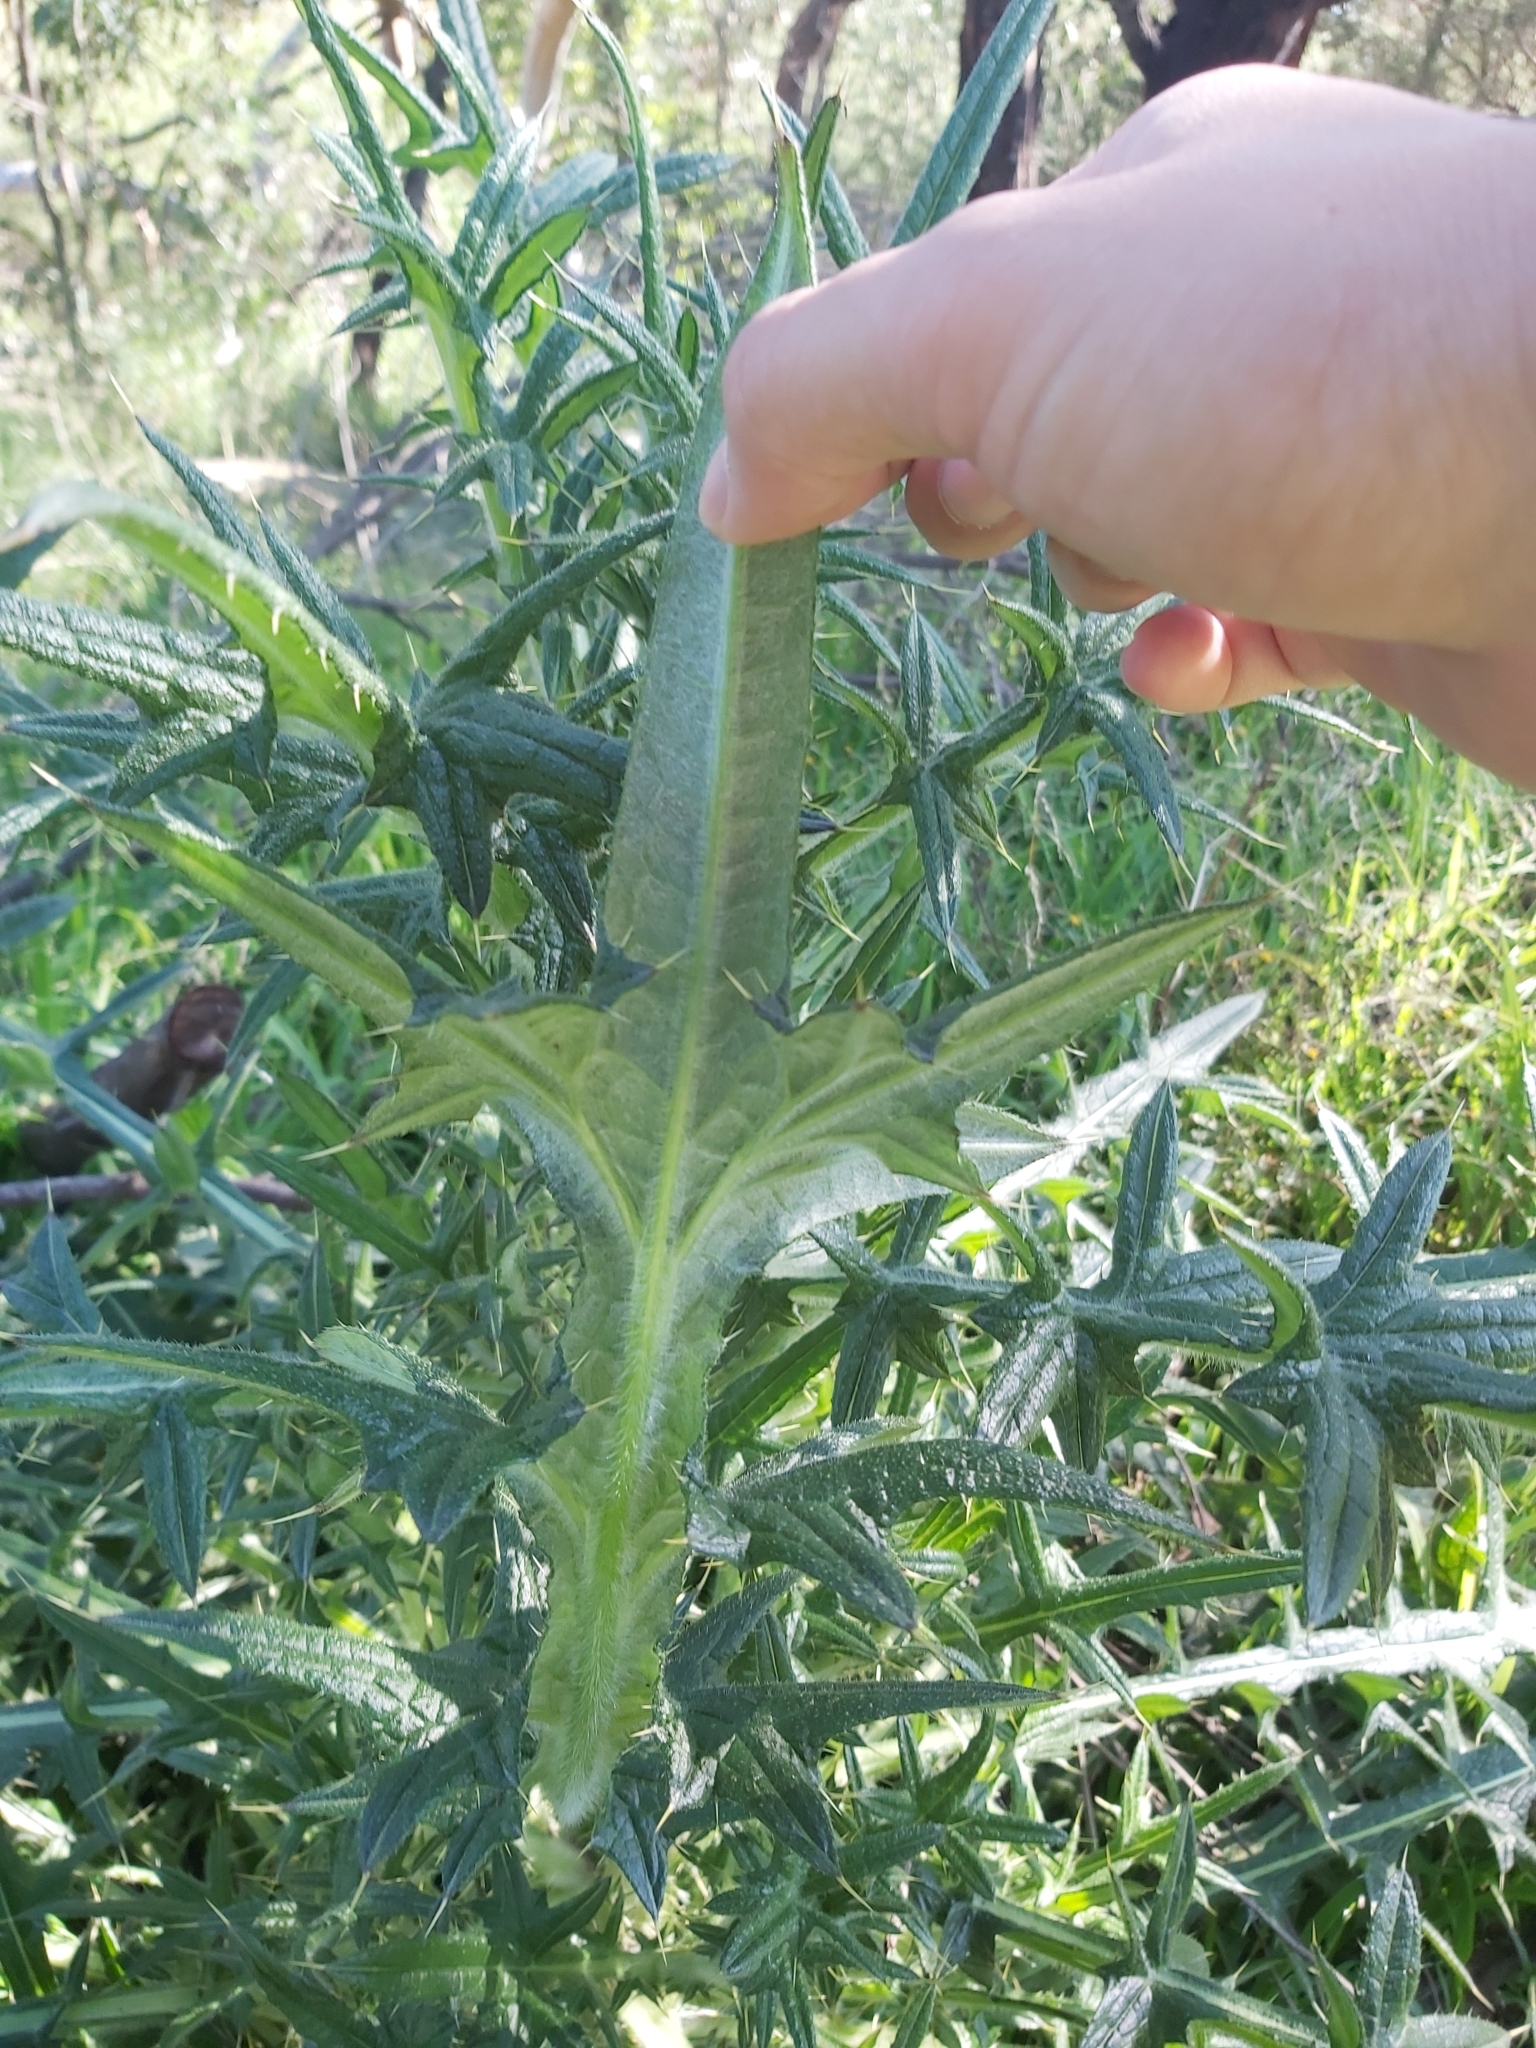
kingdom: Plantae
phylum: Tracheophyta
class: Magnoliopsida
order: Asterales
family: Asteraceae
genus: Cirsium
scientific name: Cirsium vulgare
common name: Bull thistle
